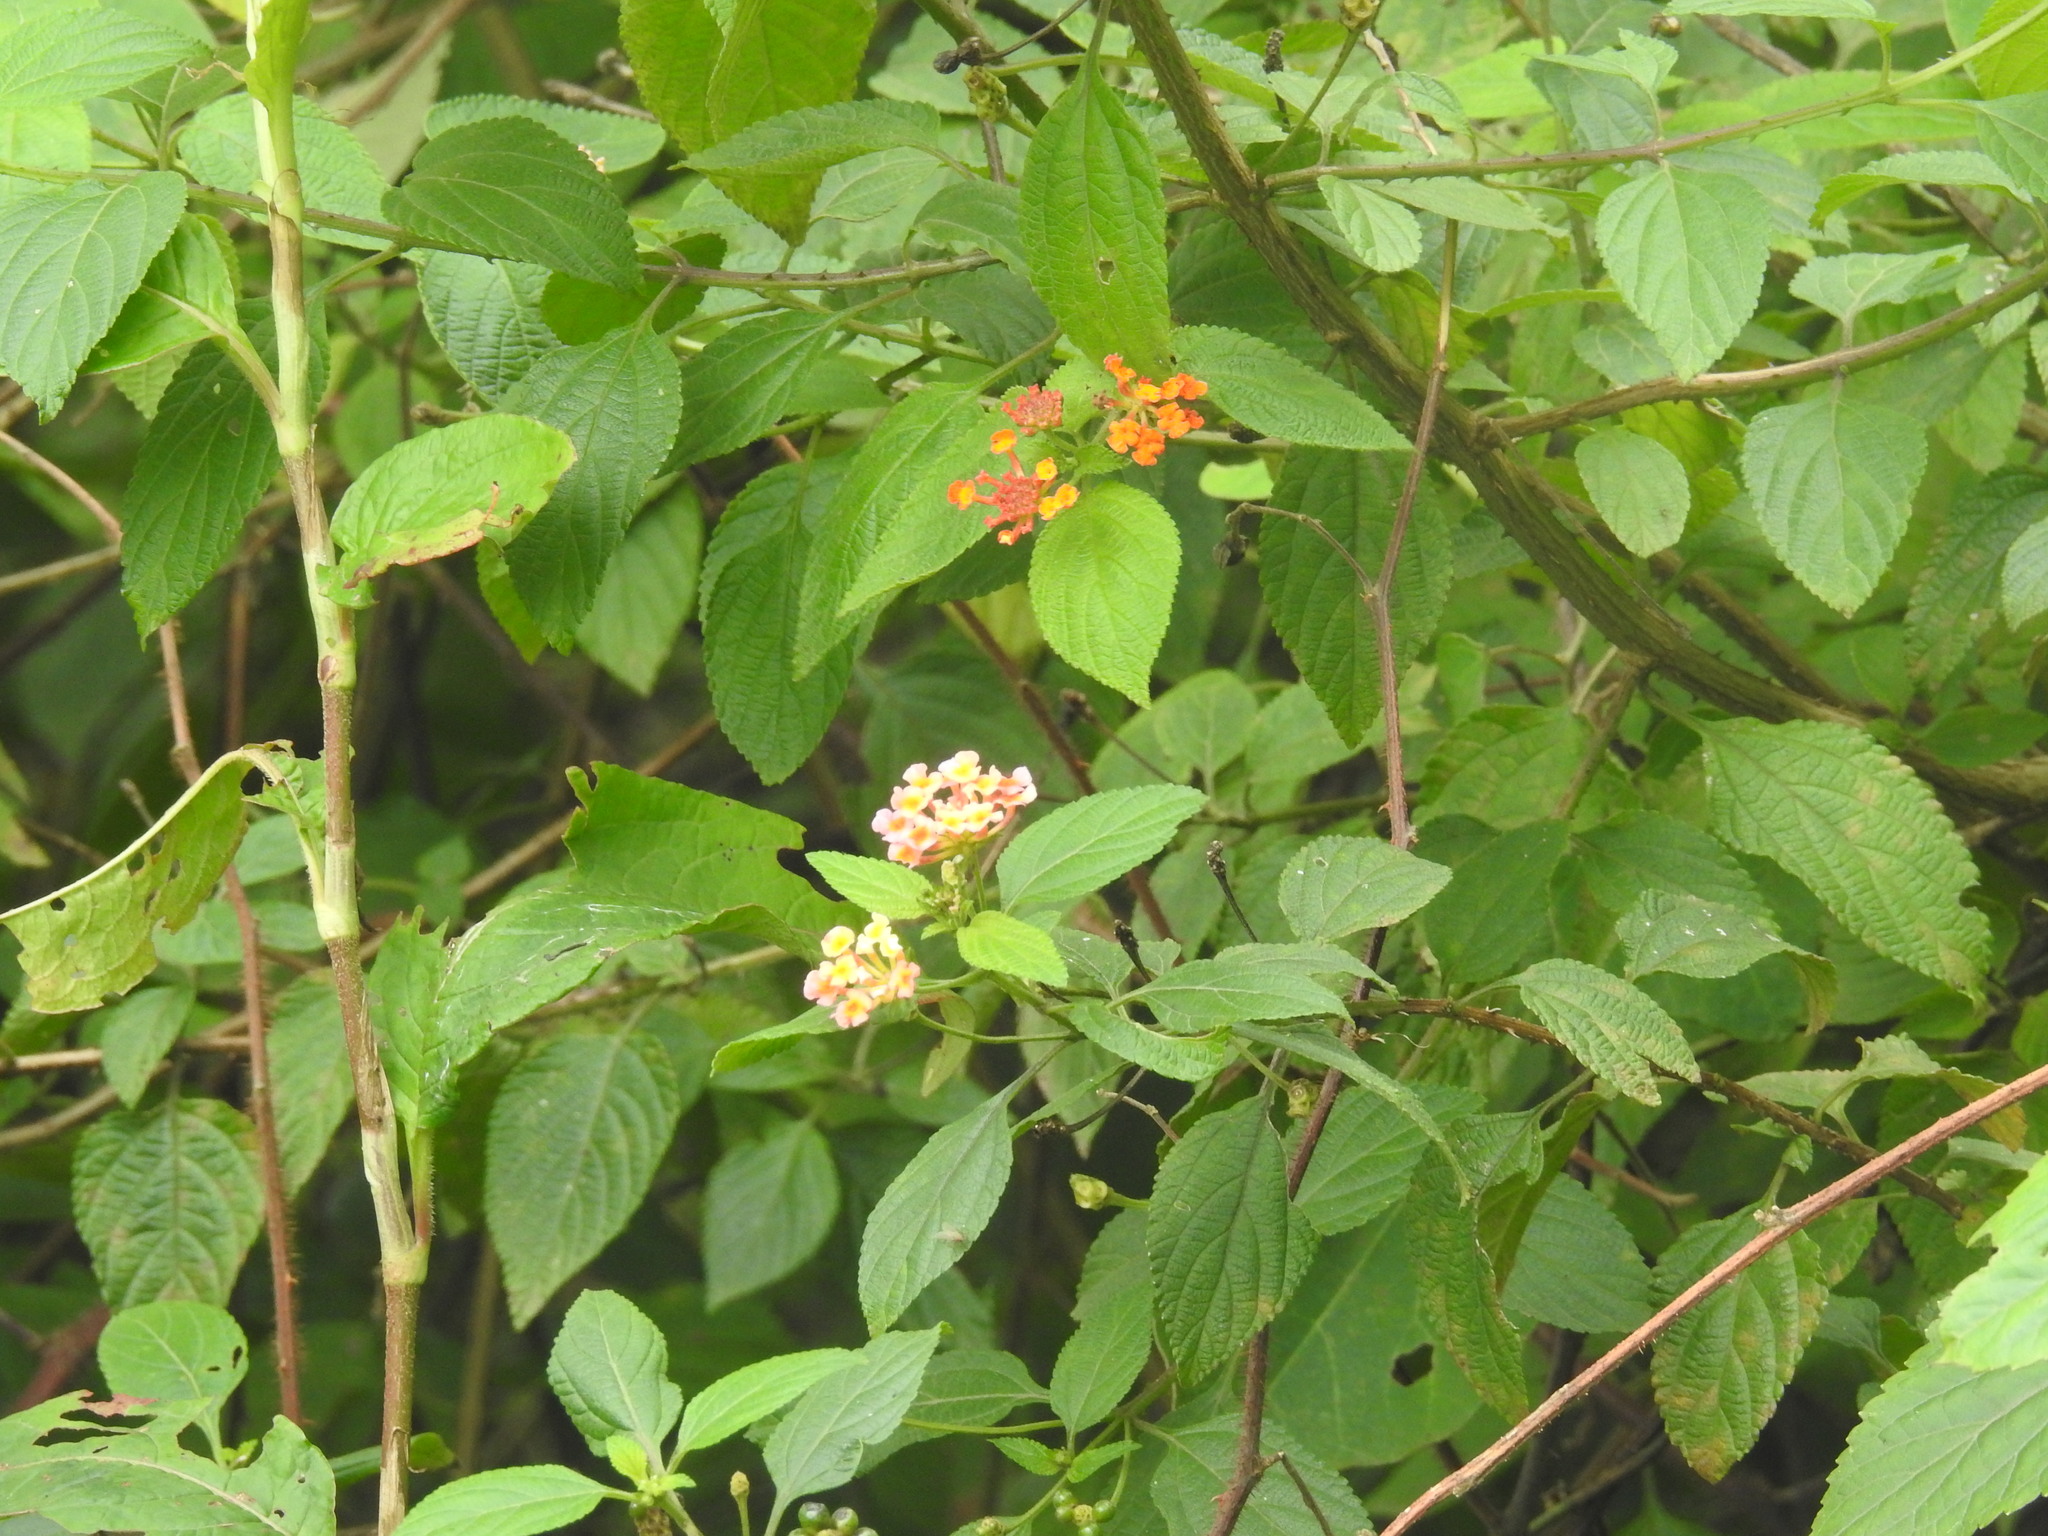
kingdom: Plantae
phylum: Tracheophyta
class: Magnoliopsida
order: Lamiales
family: Verbenaceae
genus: Lantana
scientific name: Lantana camara
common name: Lantana
